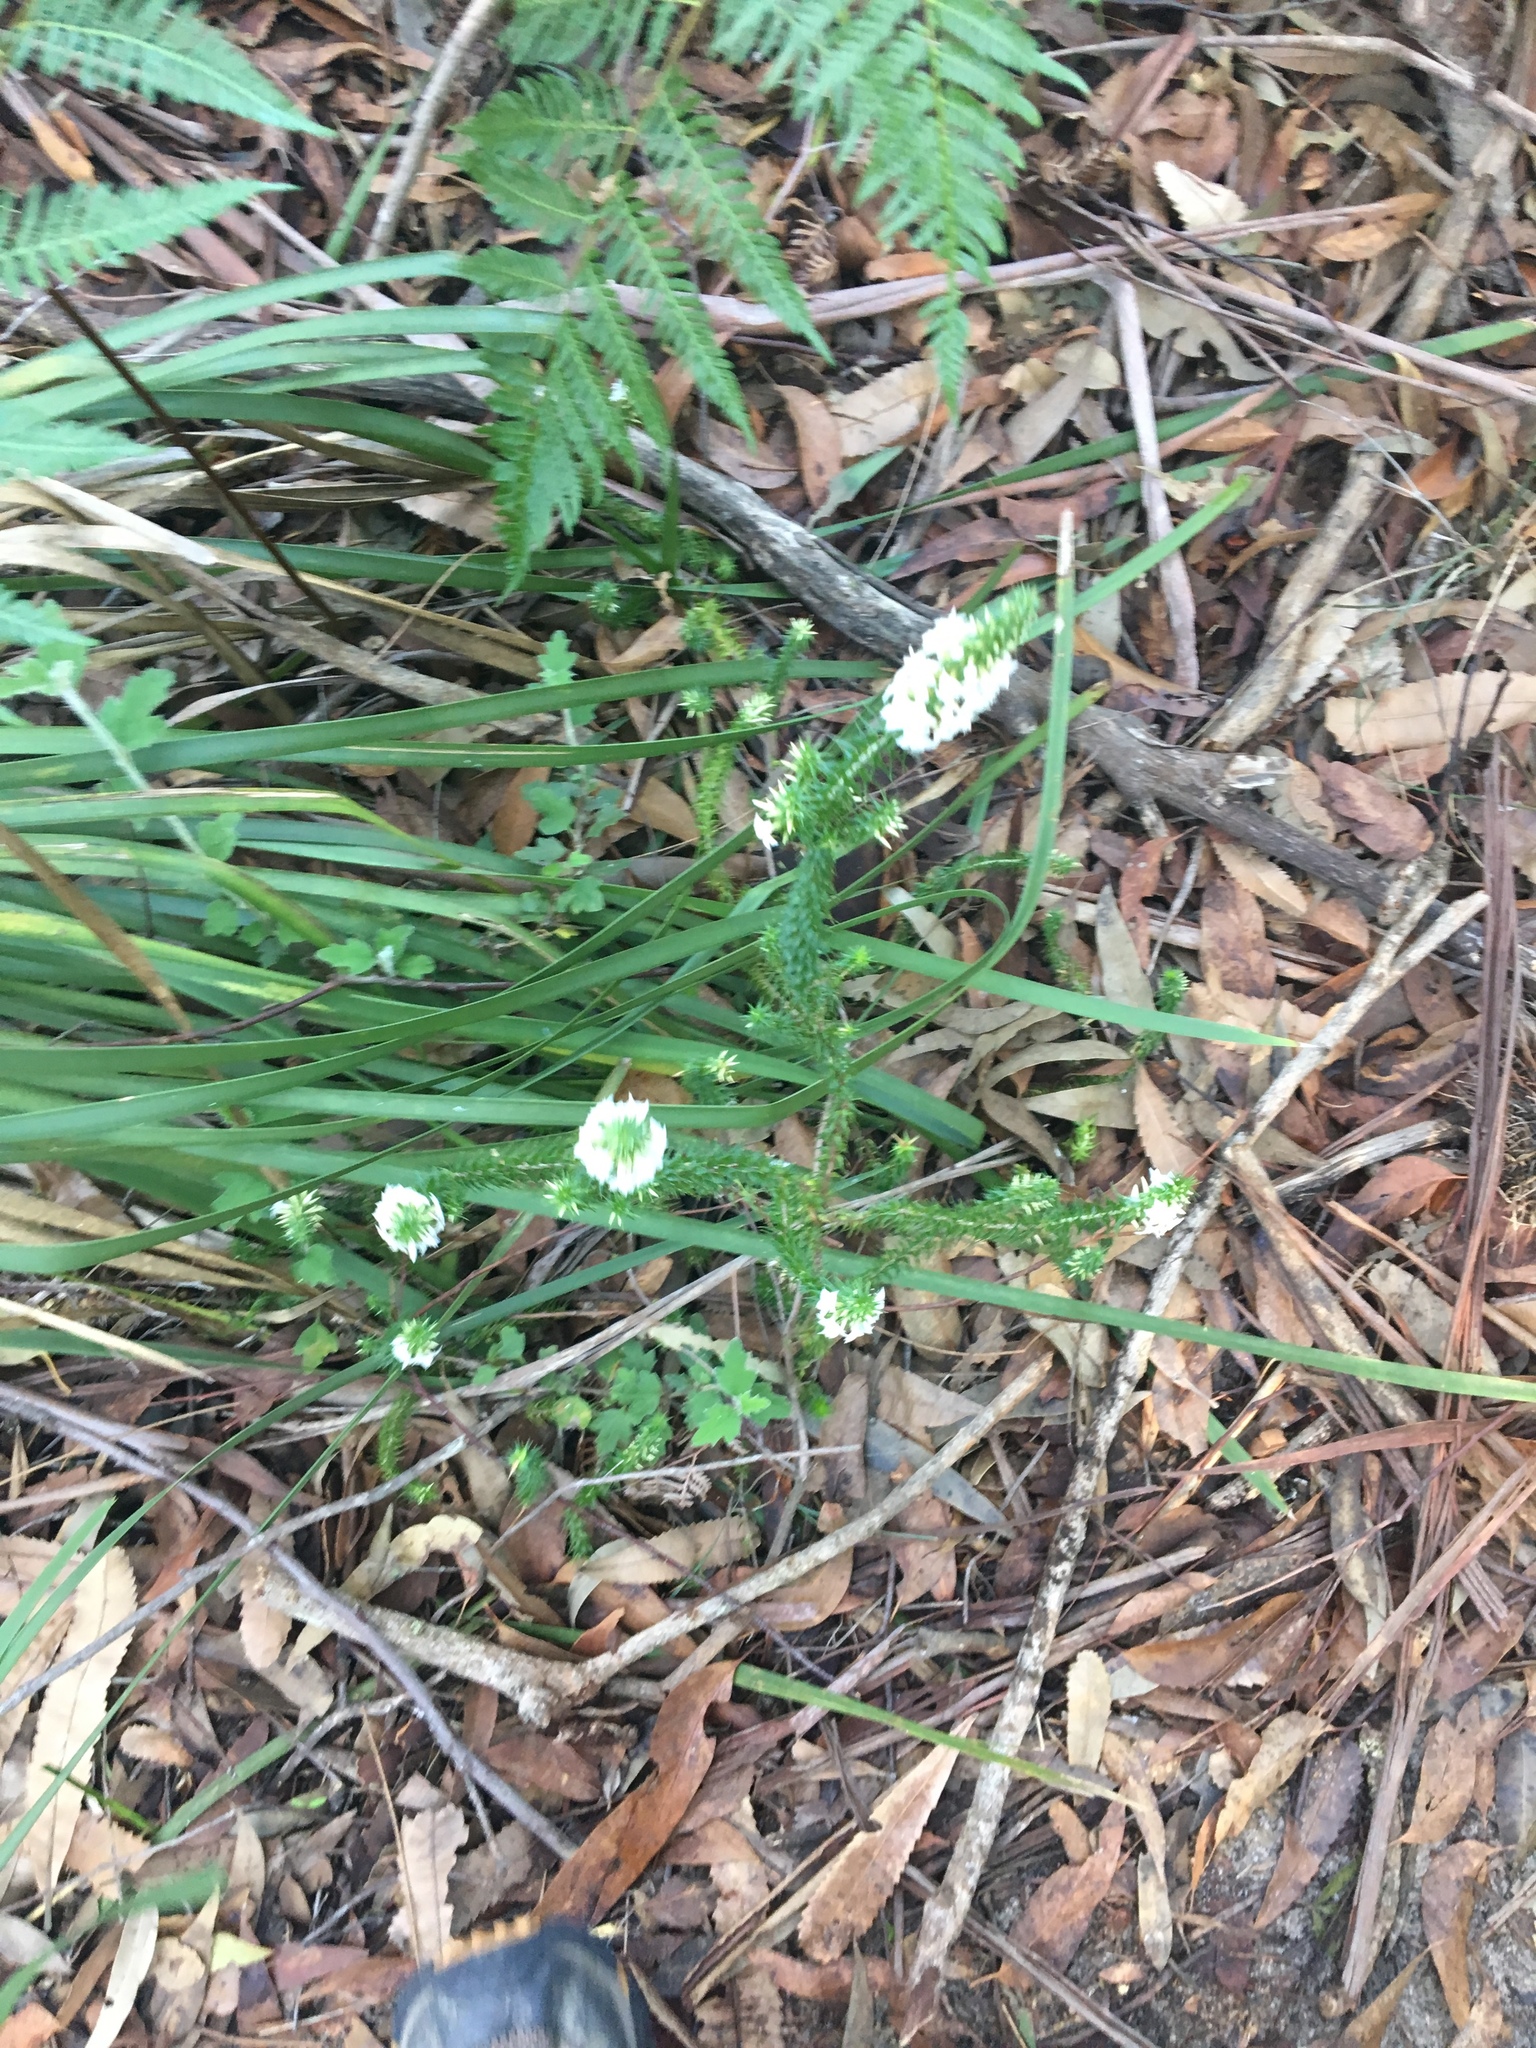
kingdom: Plantae
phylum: Tracheophyta
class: Magnoliopsida
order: Ericales
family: Ericaceae
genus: Woollsia
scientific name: Woollsia pungens
